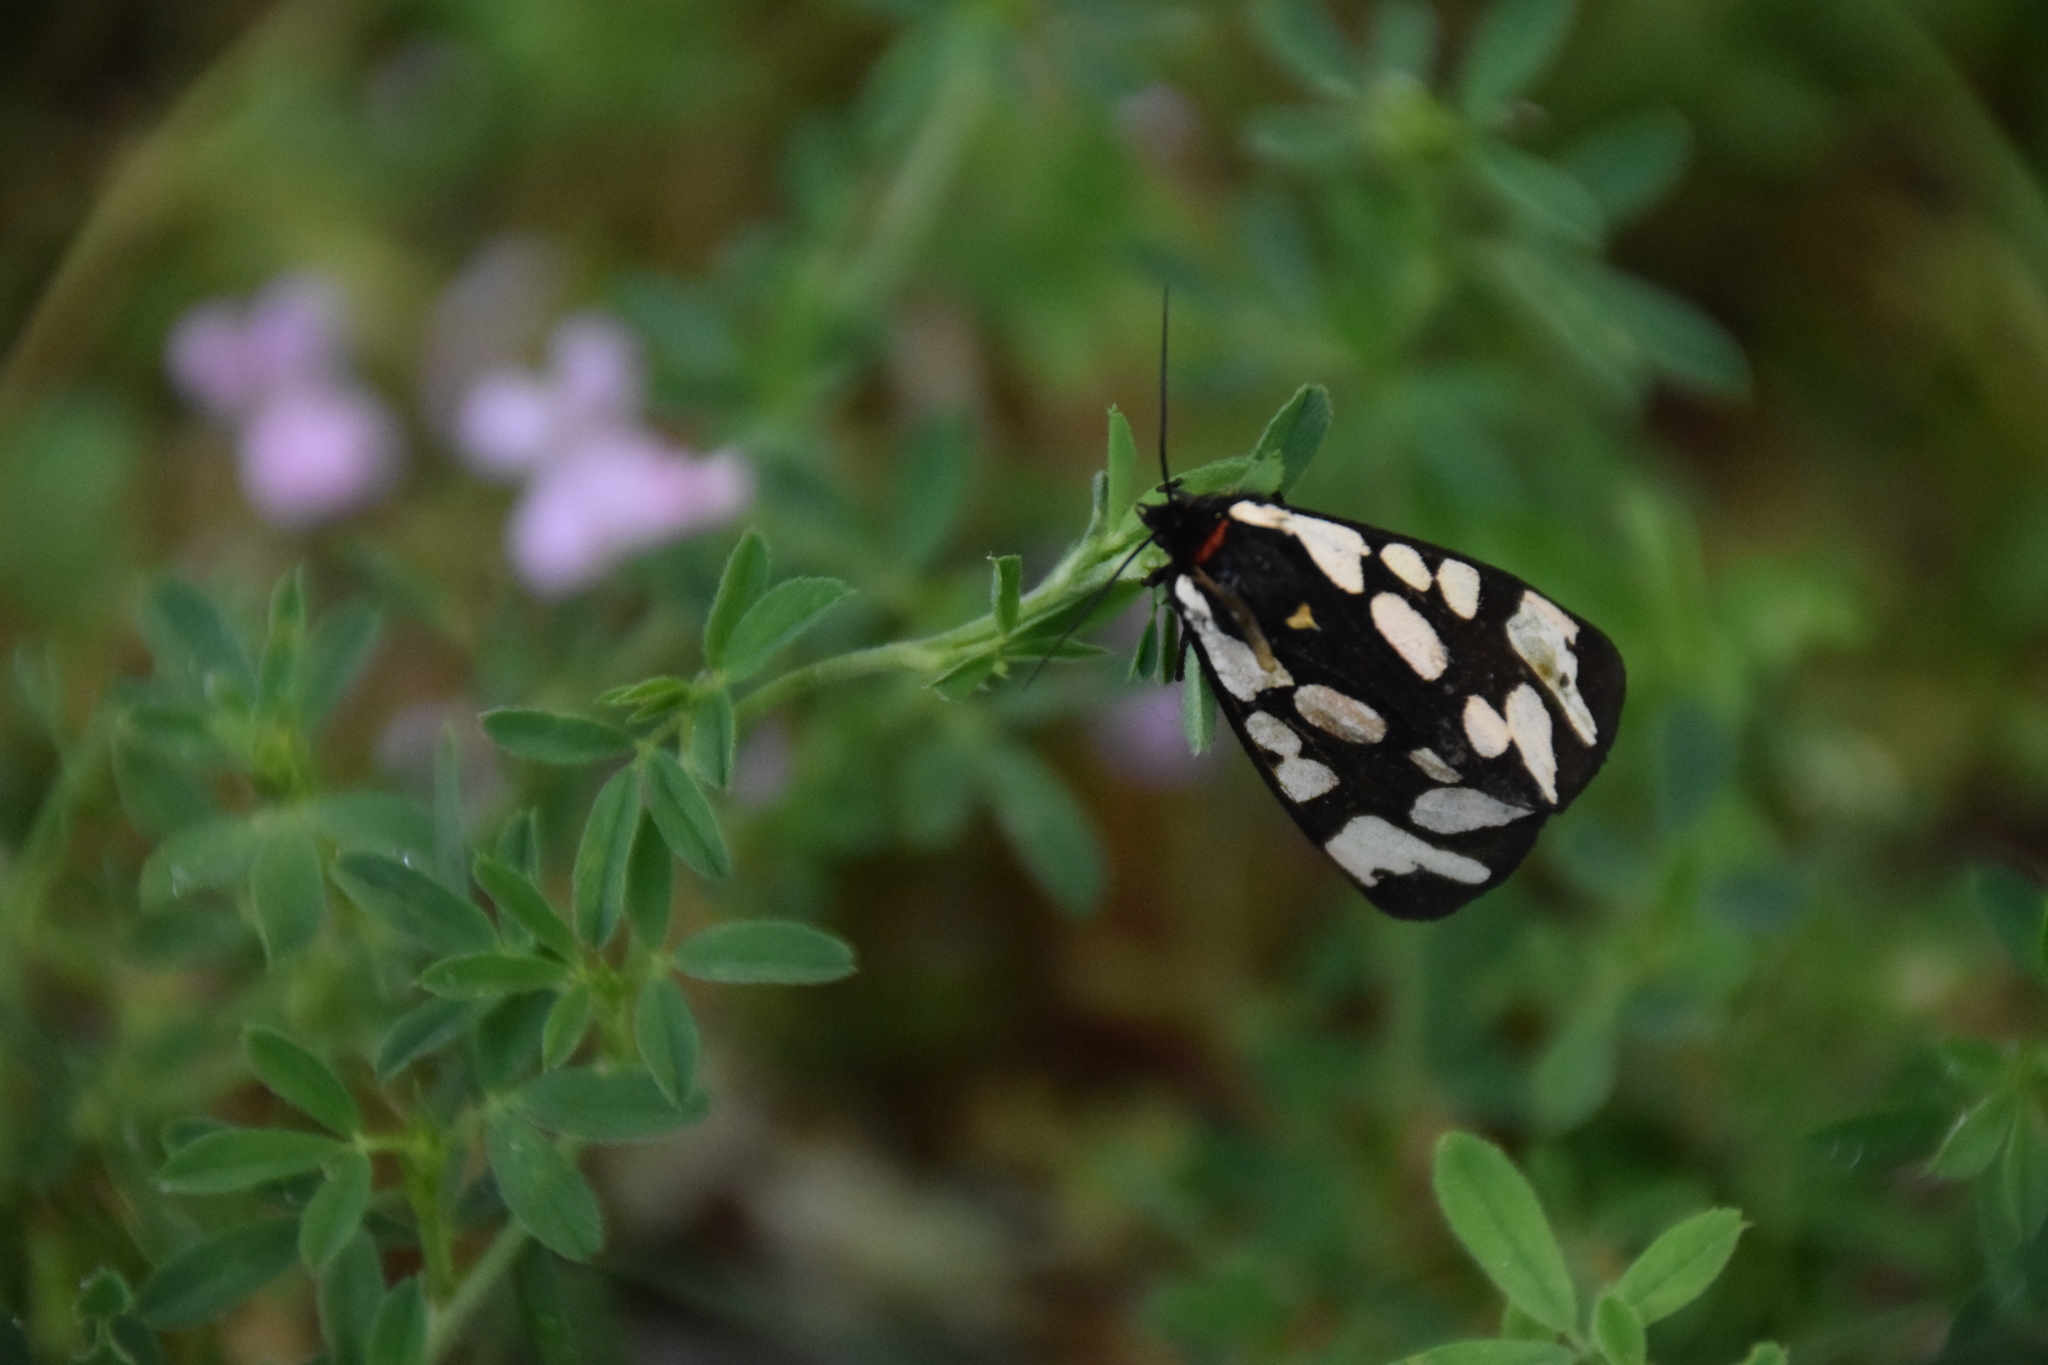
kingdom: Animalia
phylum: Arthropoda
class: Insecta
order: Lepidoptera
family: Erebidae
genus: Epicallia
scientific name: Epicallia villica
